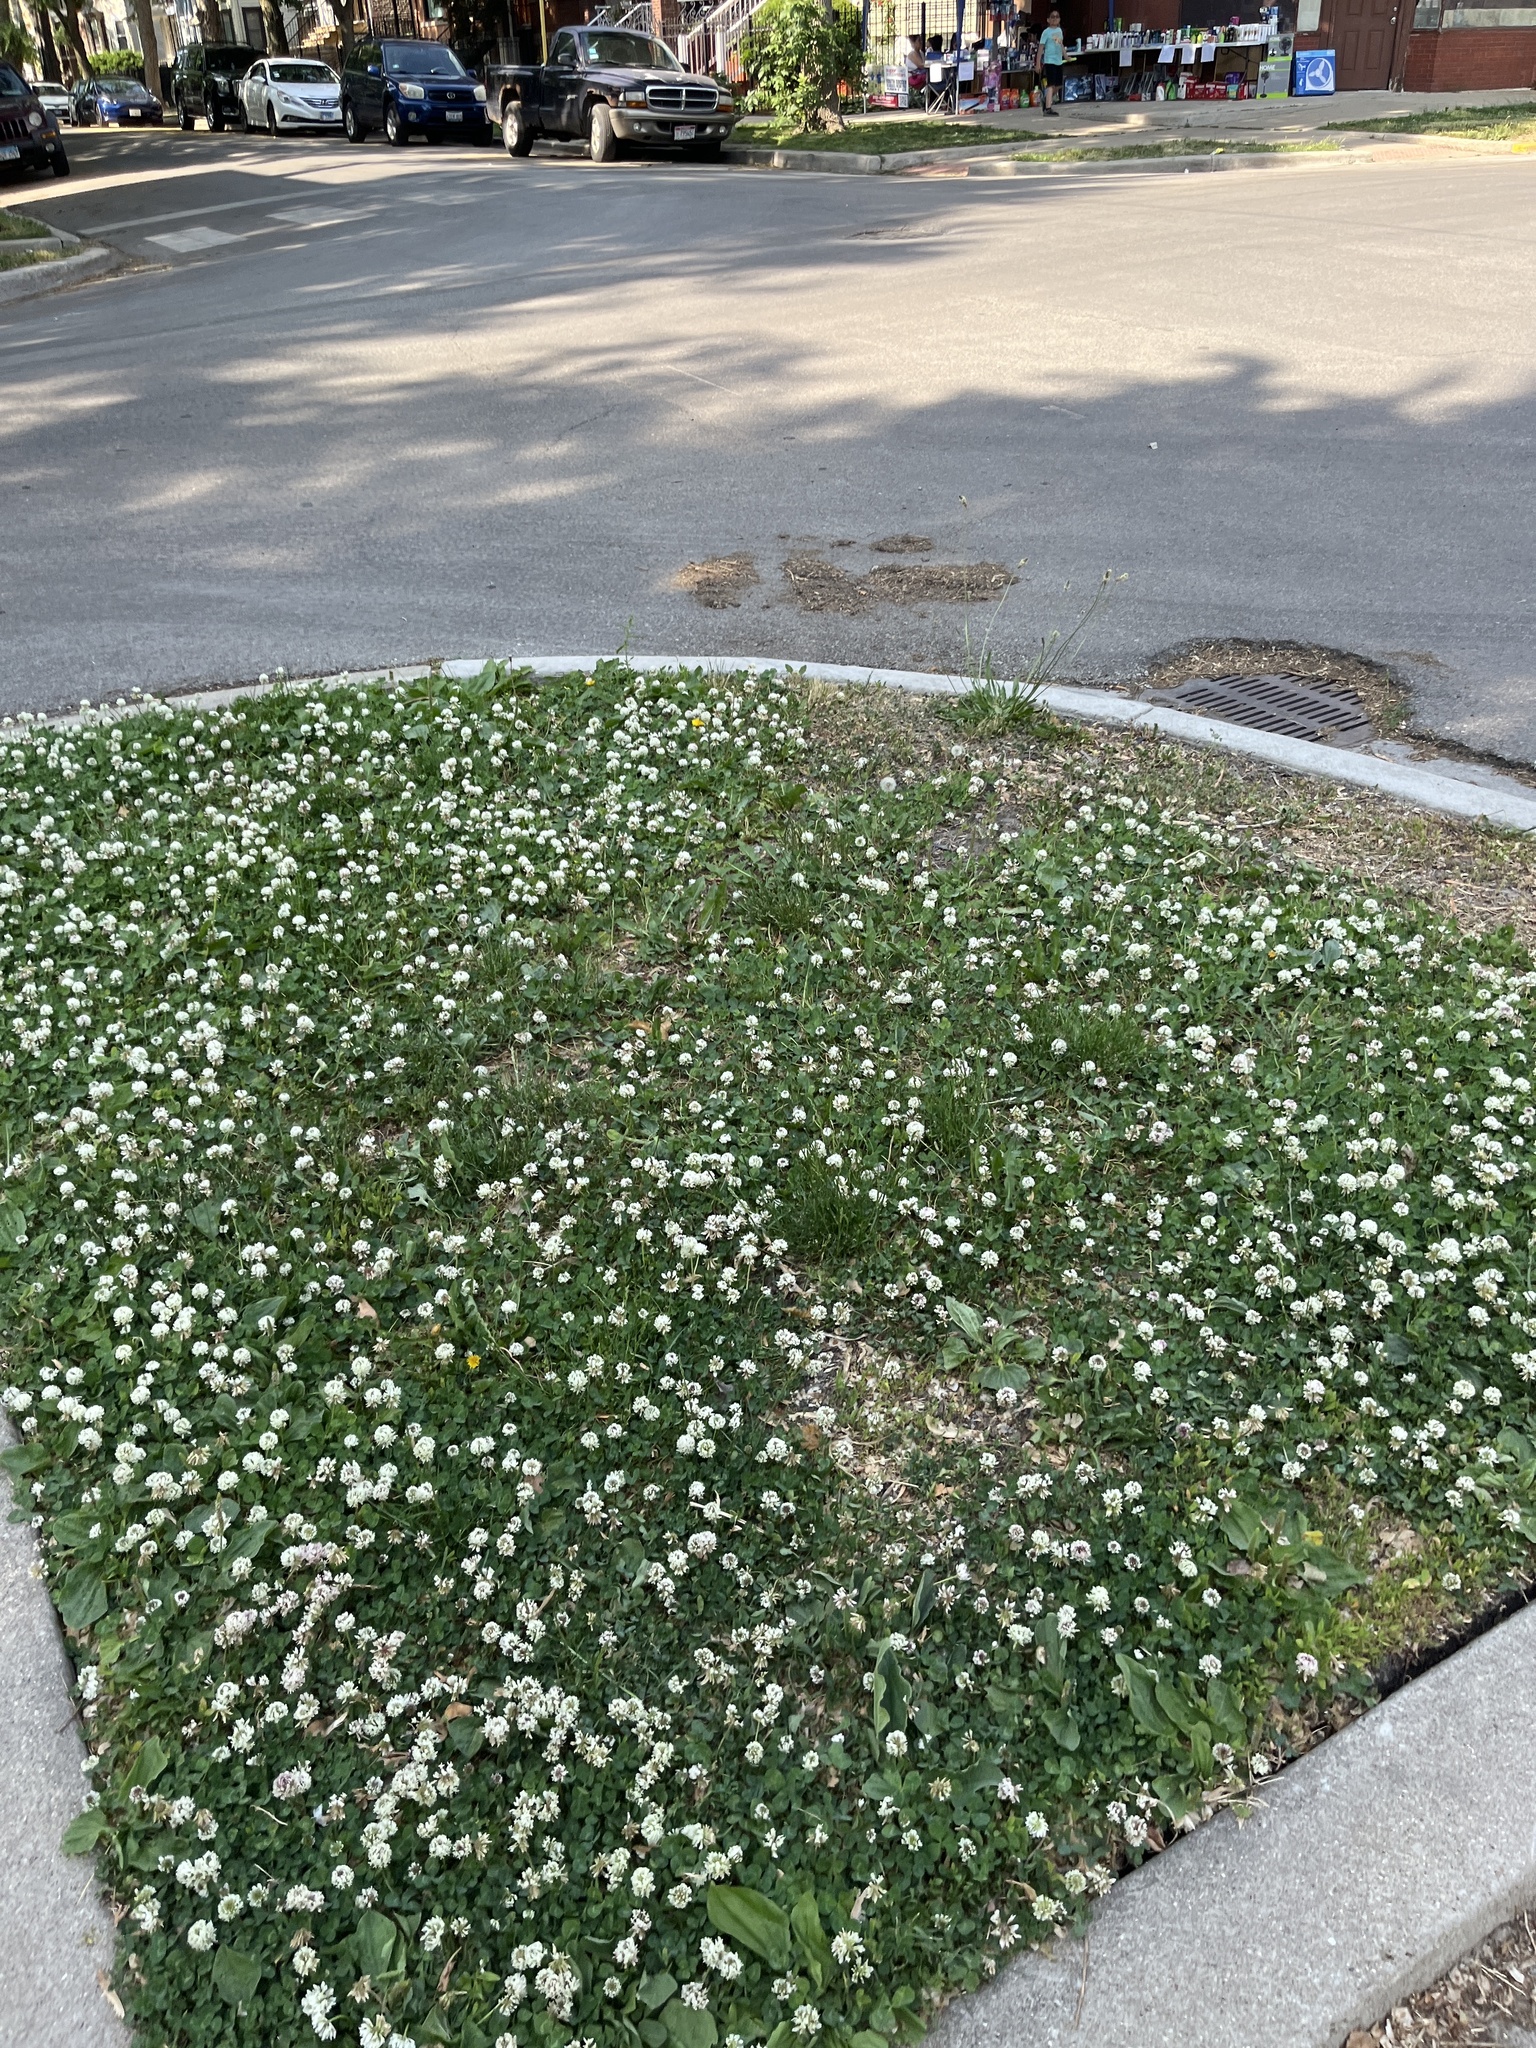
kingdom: Plantae
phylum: Tracheophyta
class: Magnoliopsida
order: Fabales
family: Fabaceae
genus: Trifolium
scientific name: Trifolium repens
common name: White clover
